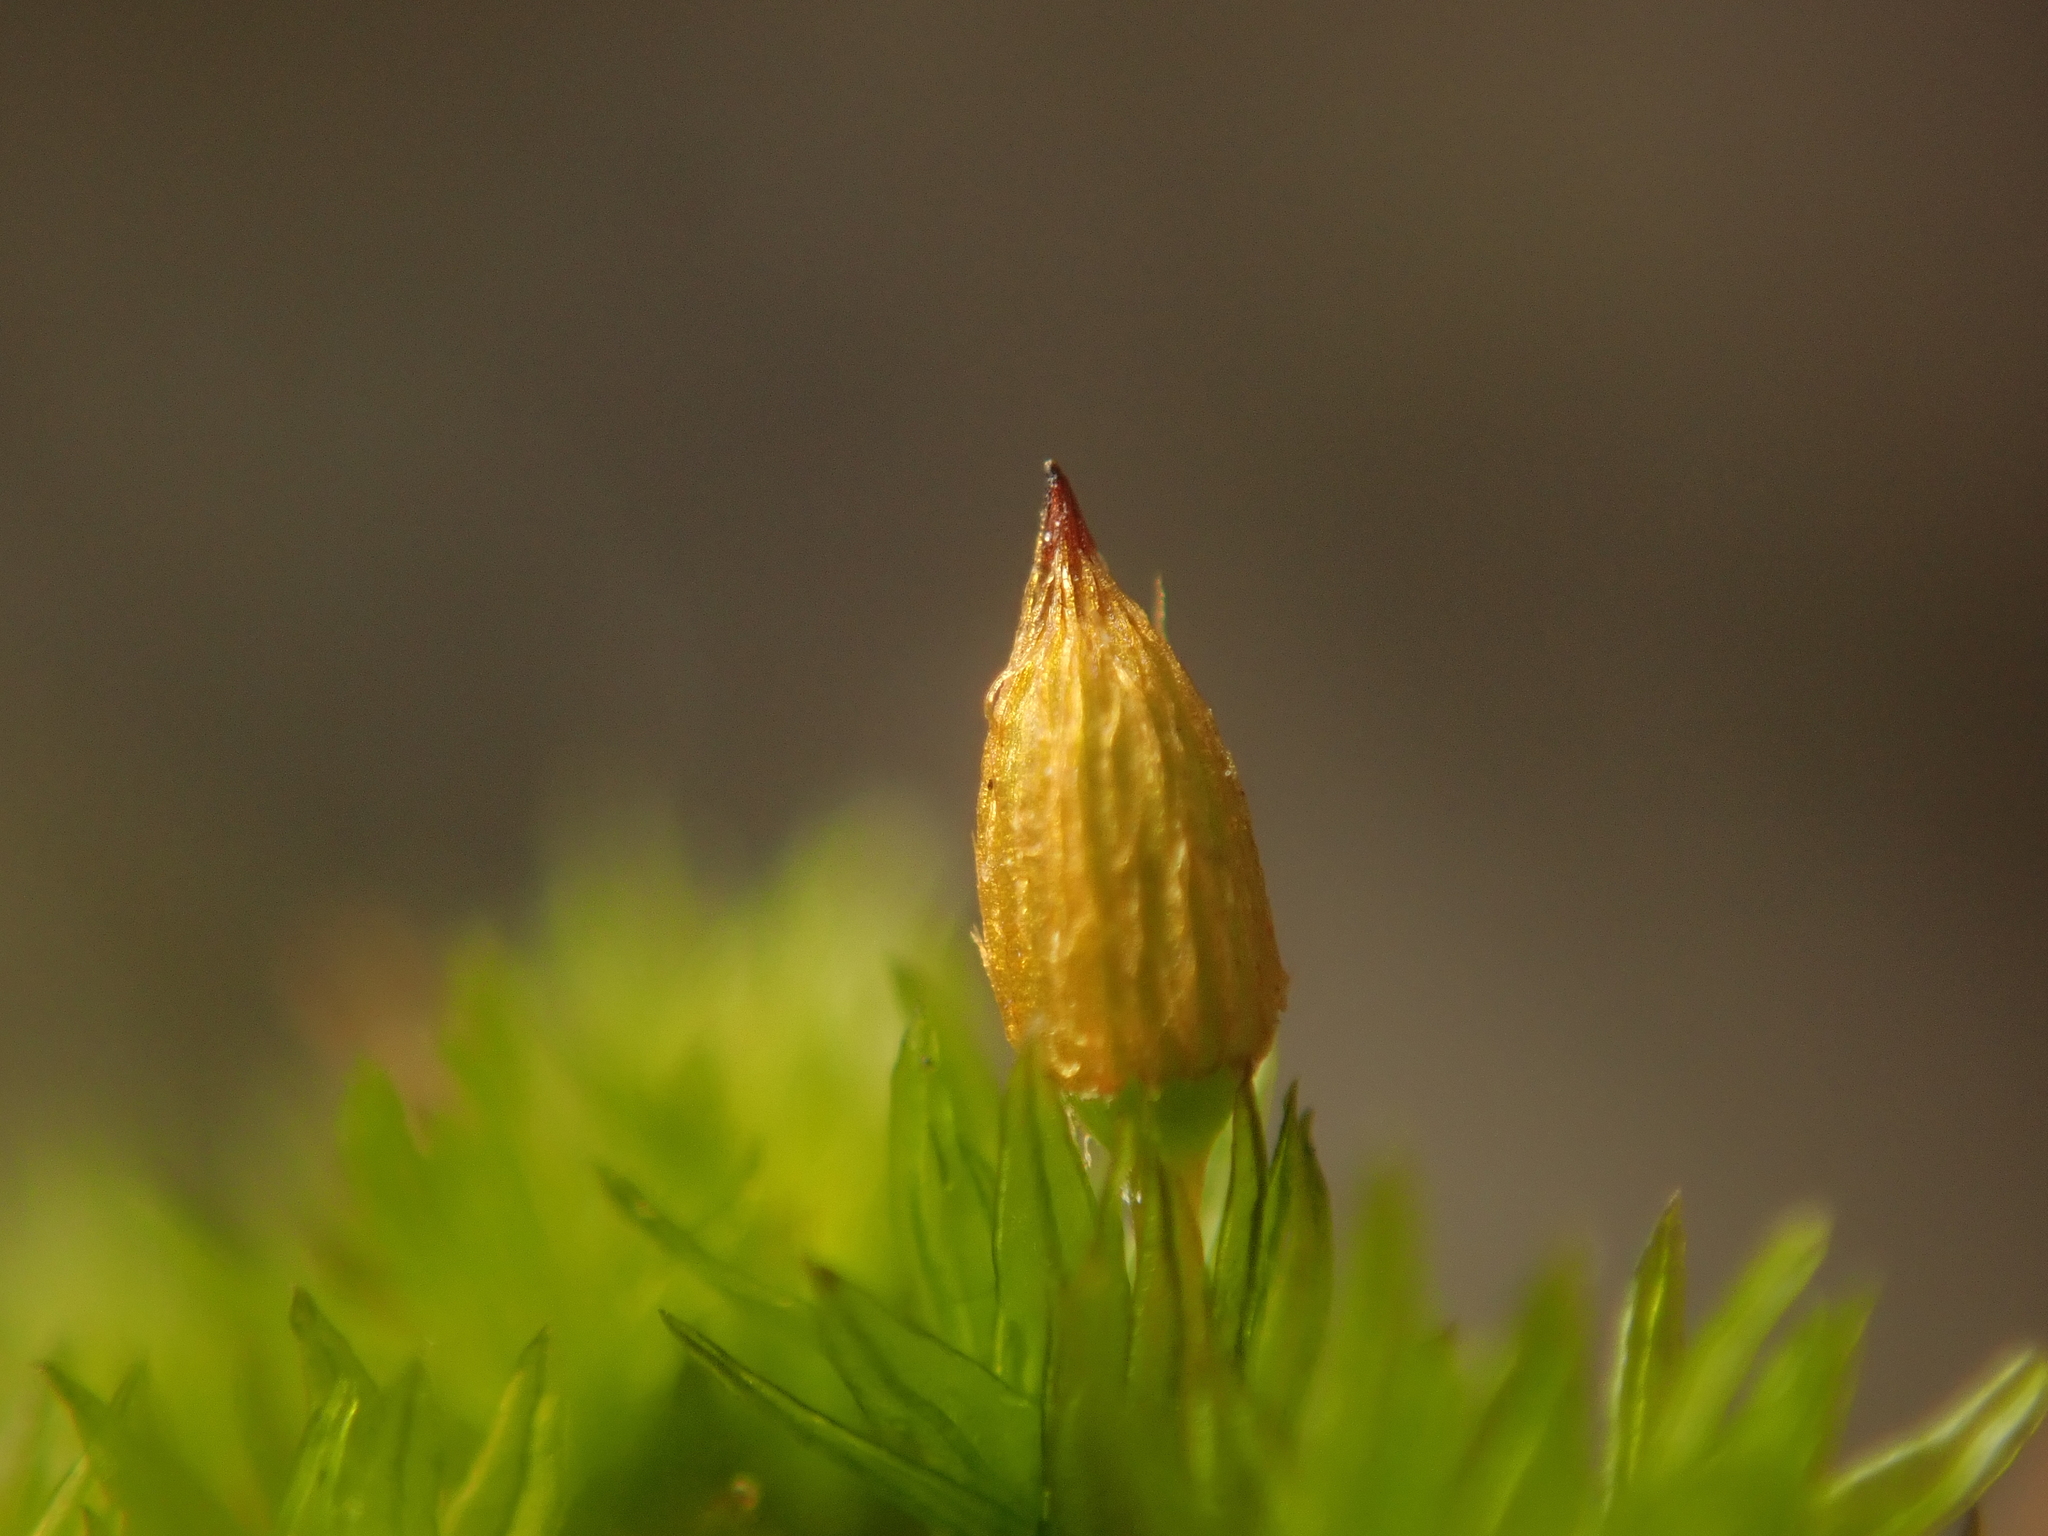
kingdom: Plantae
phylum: Bryophyta
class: Bryopsida
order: Orthotrichales
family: Orthotrichaceae
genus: Orthotrichum
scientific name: Orthotrichum anomalum
